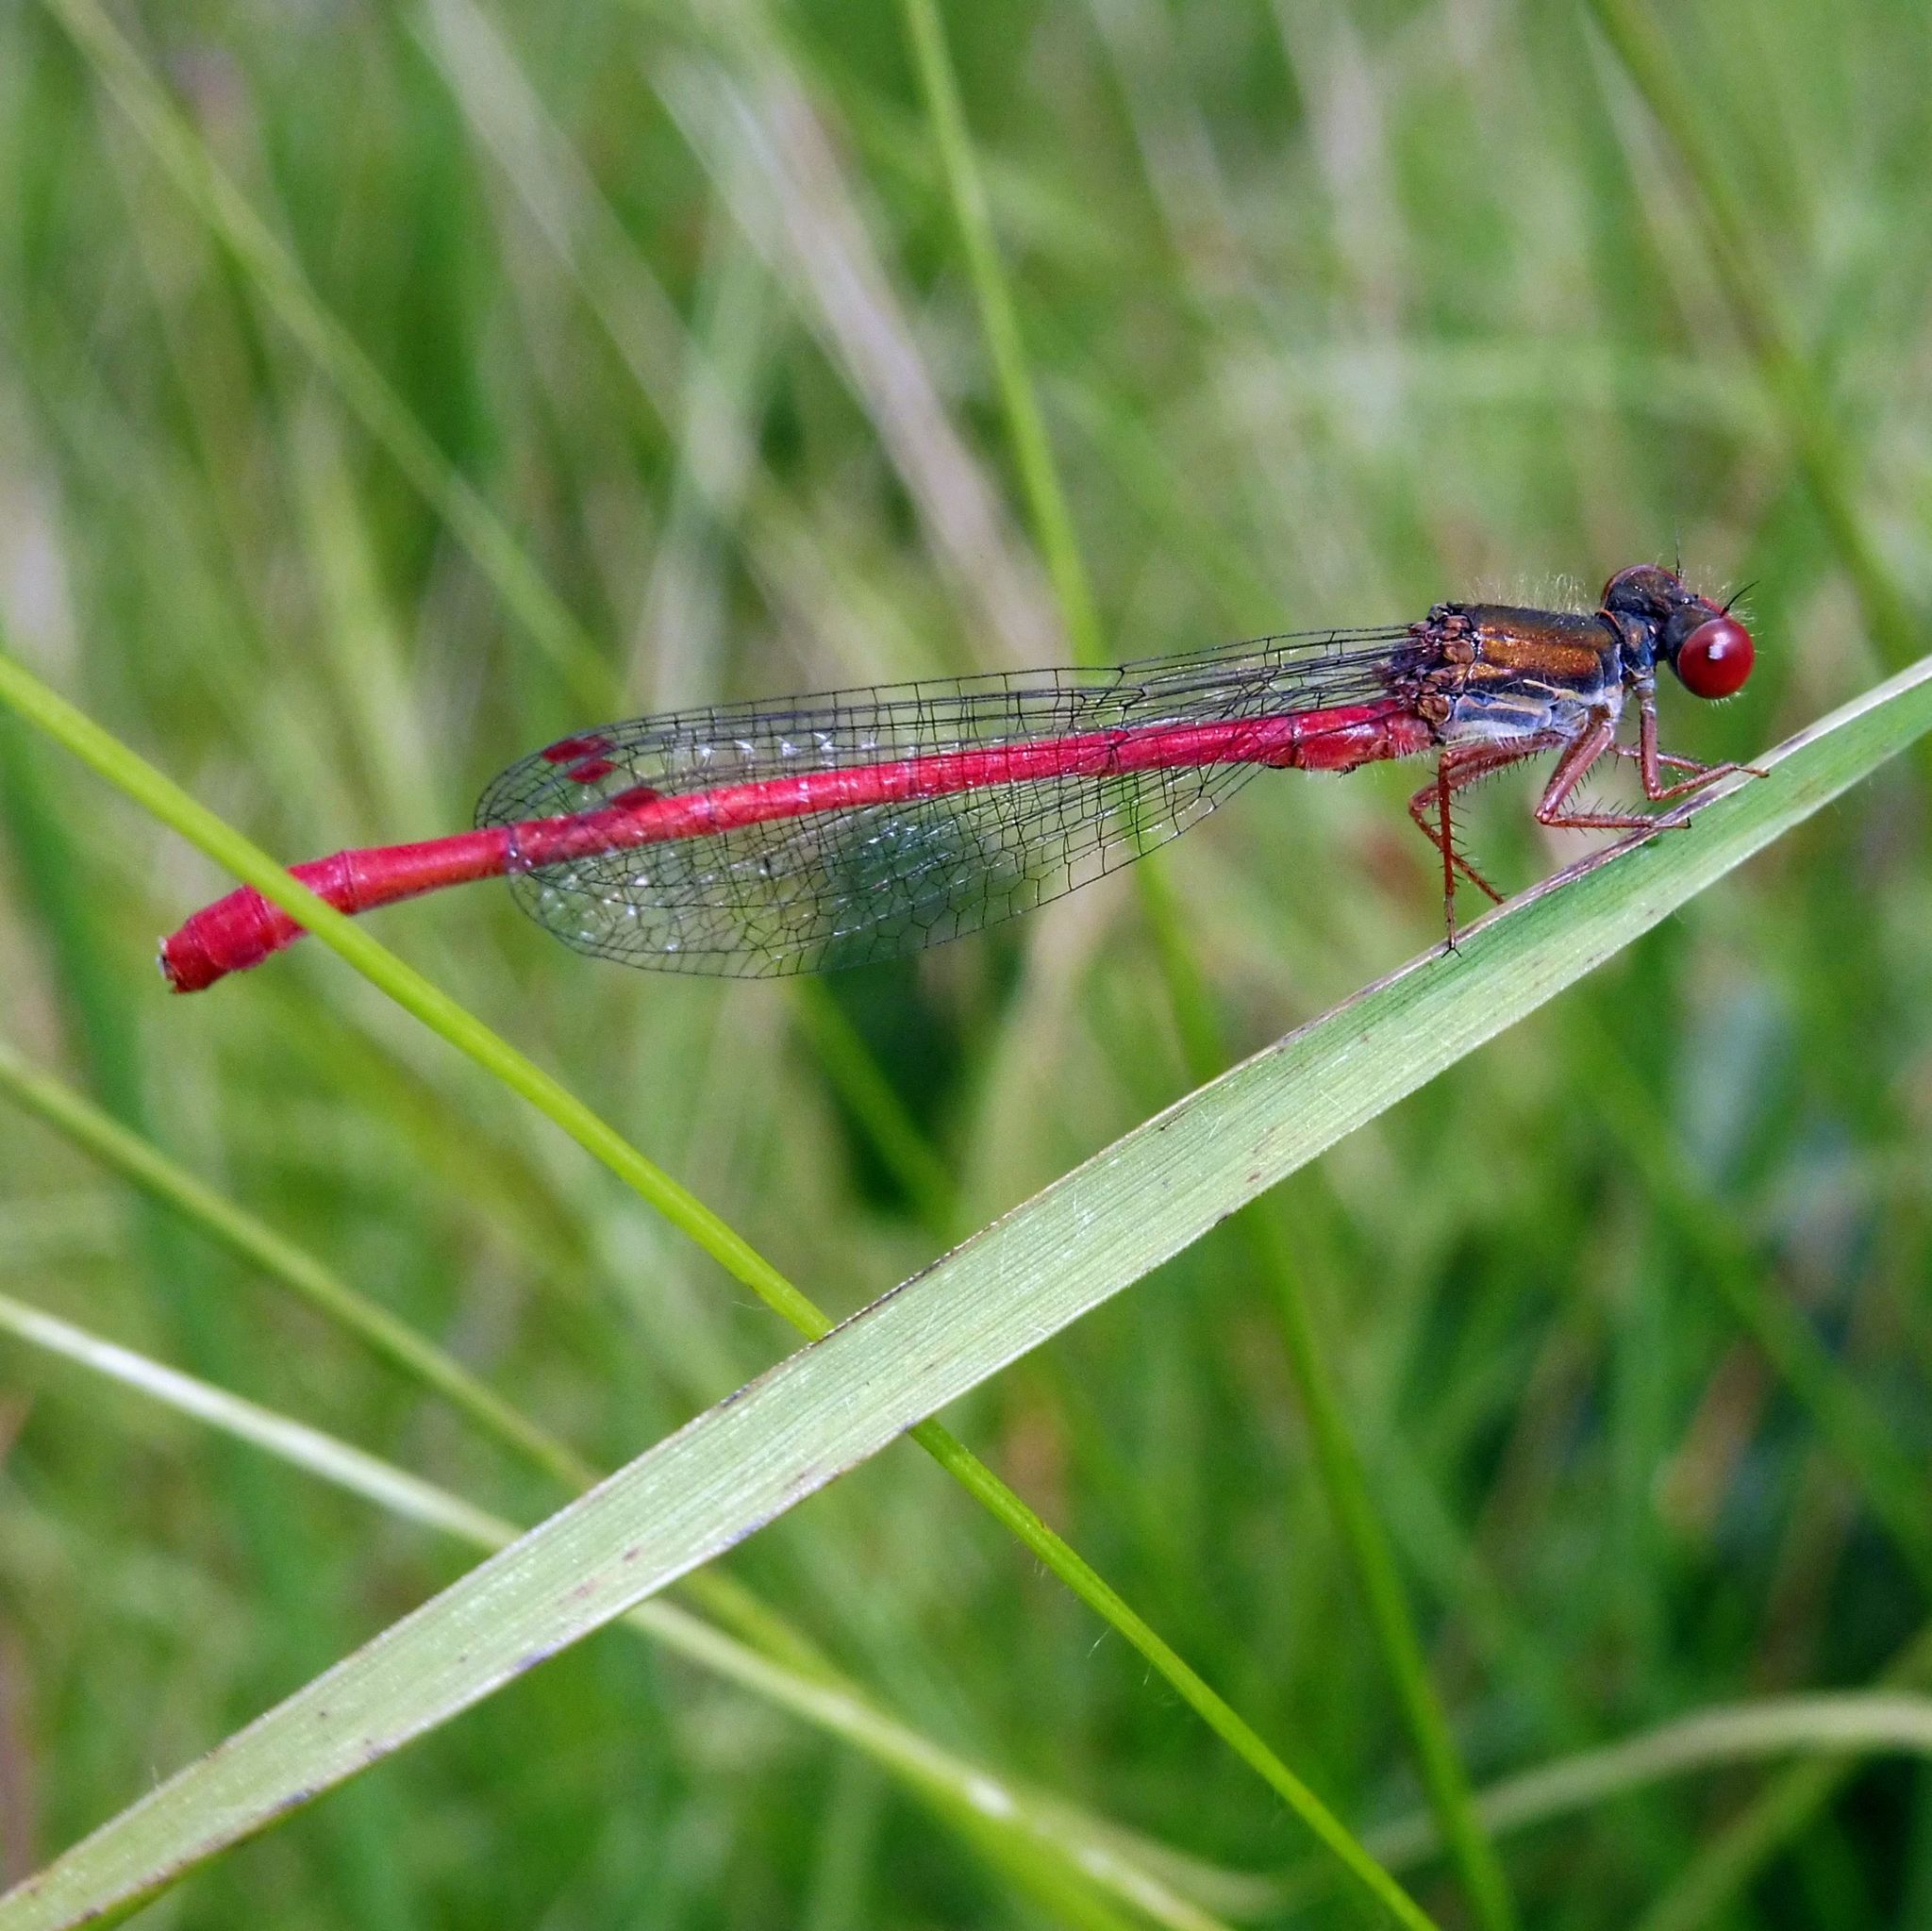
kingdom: Animalia
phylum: Arthropoda
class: Insecta
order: Odonata
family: Coenagrionidae
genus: Ceriagrion
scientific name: Ceriagrion tenellum
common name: Small red damselfly
